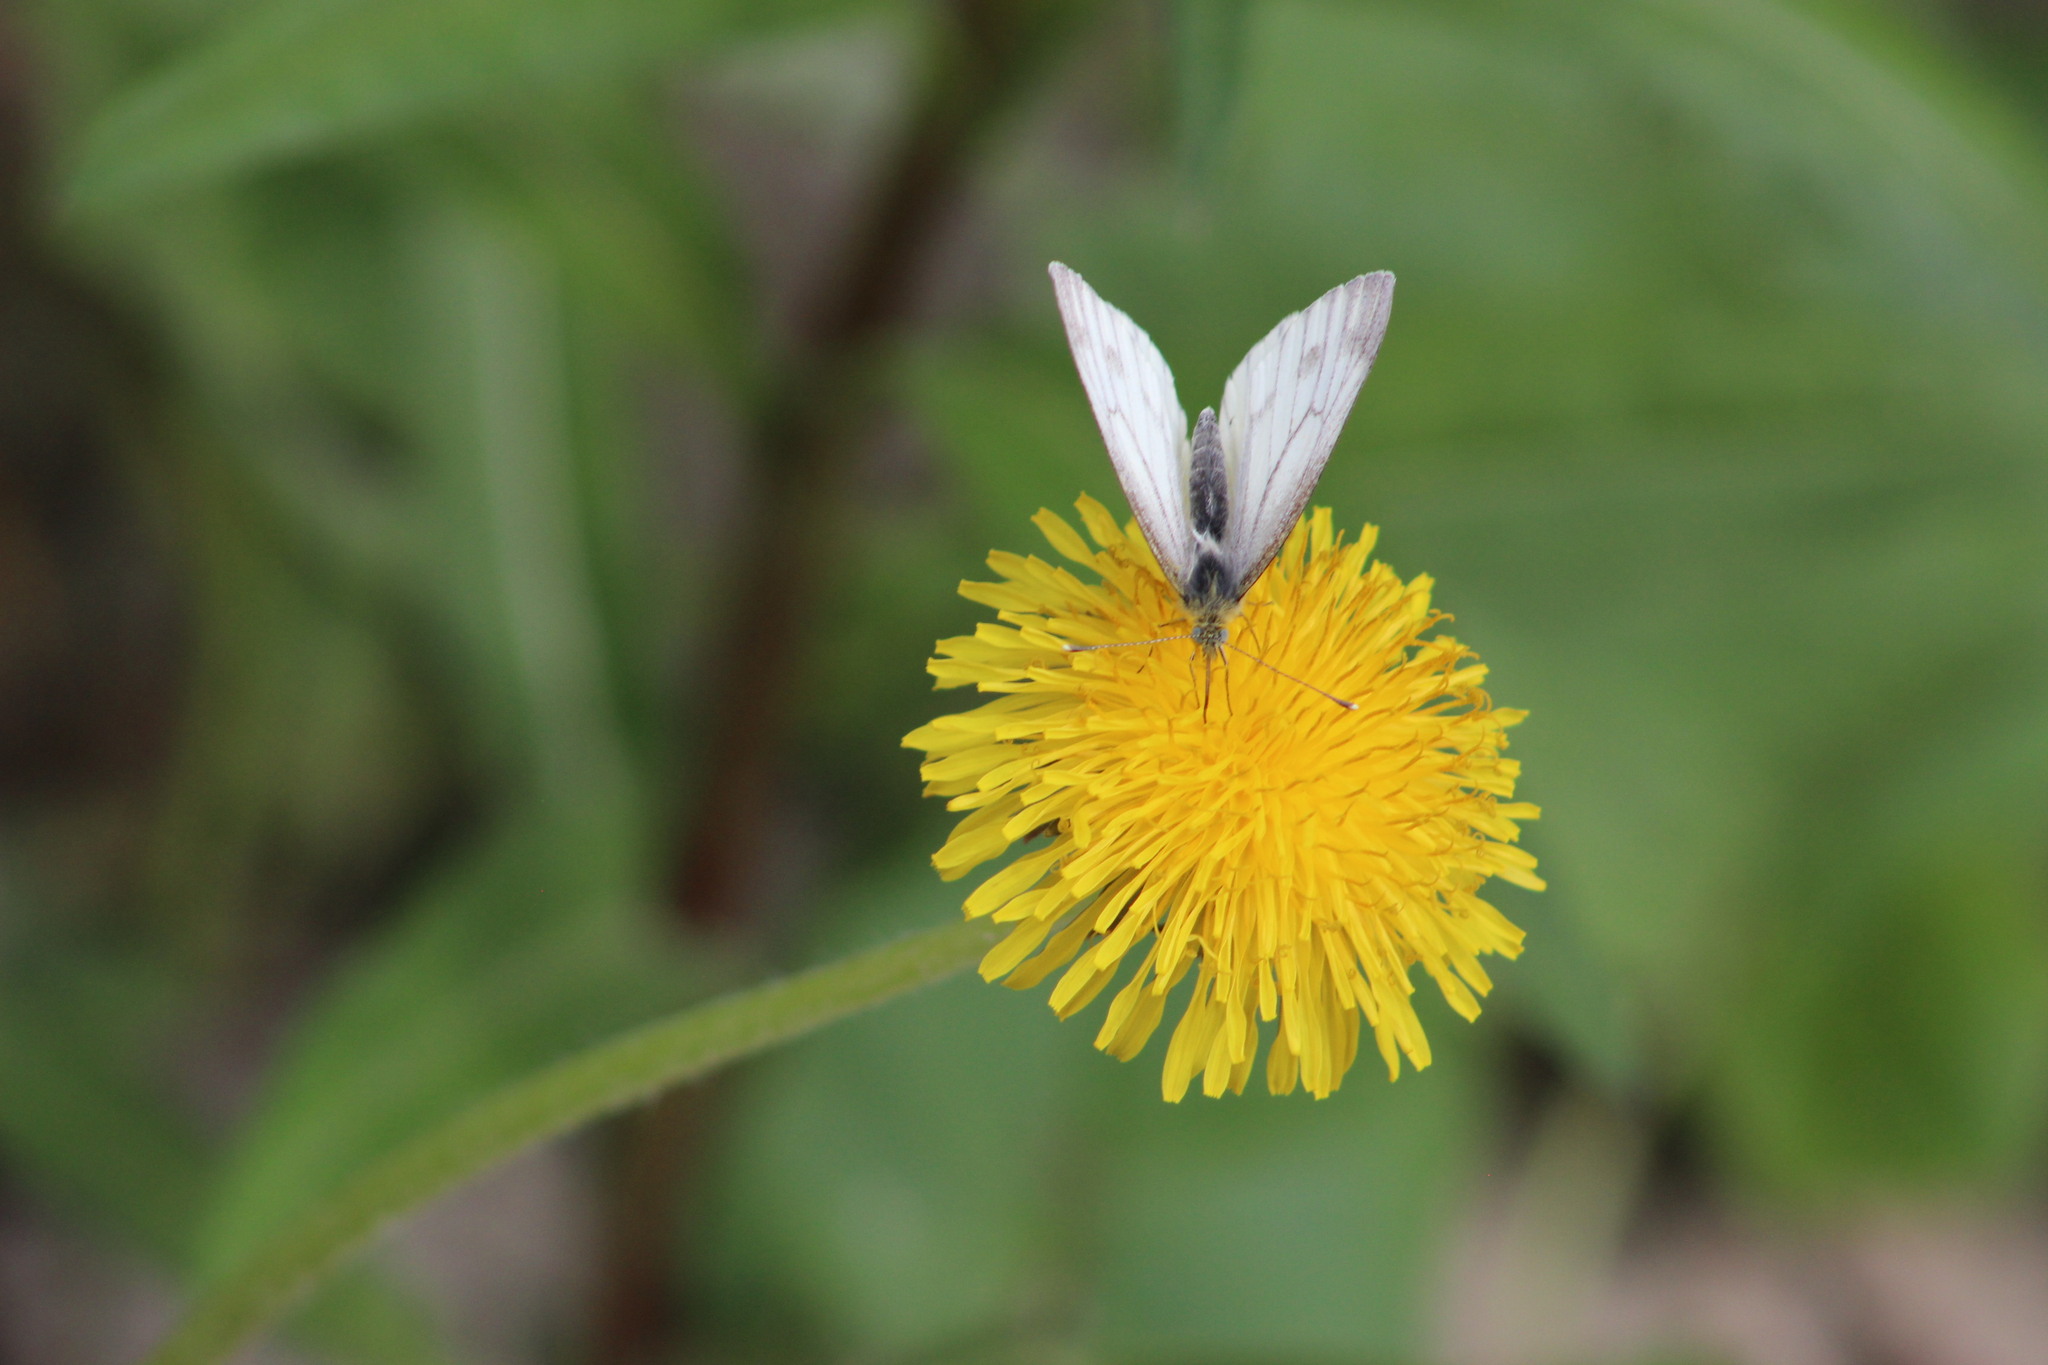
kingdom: Animalia
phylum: Arthropoda
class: Insecta
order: Lepidoptera
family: Pieridae
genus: Pieris
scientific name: Pieris napi
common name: Green-veined white
